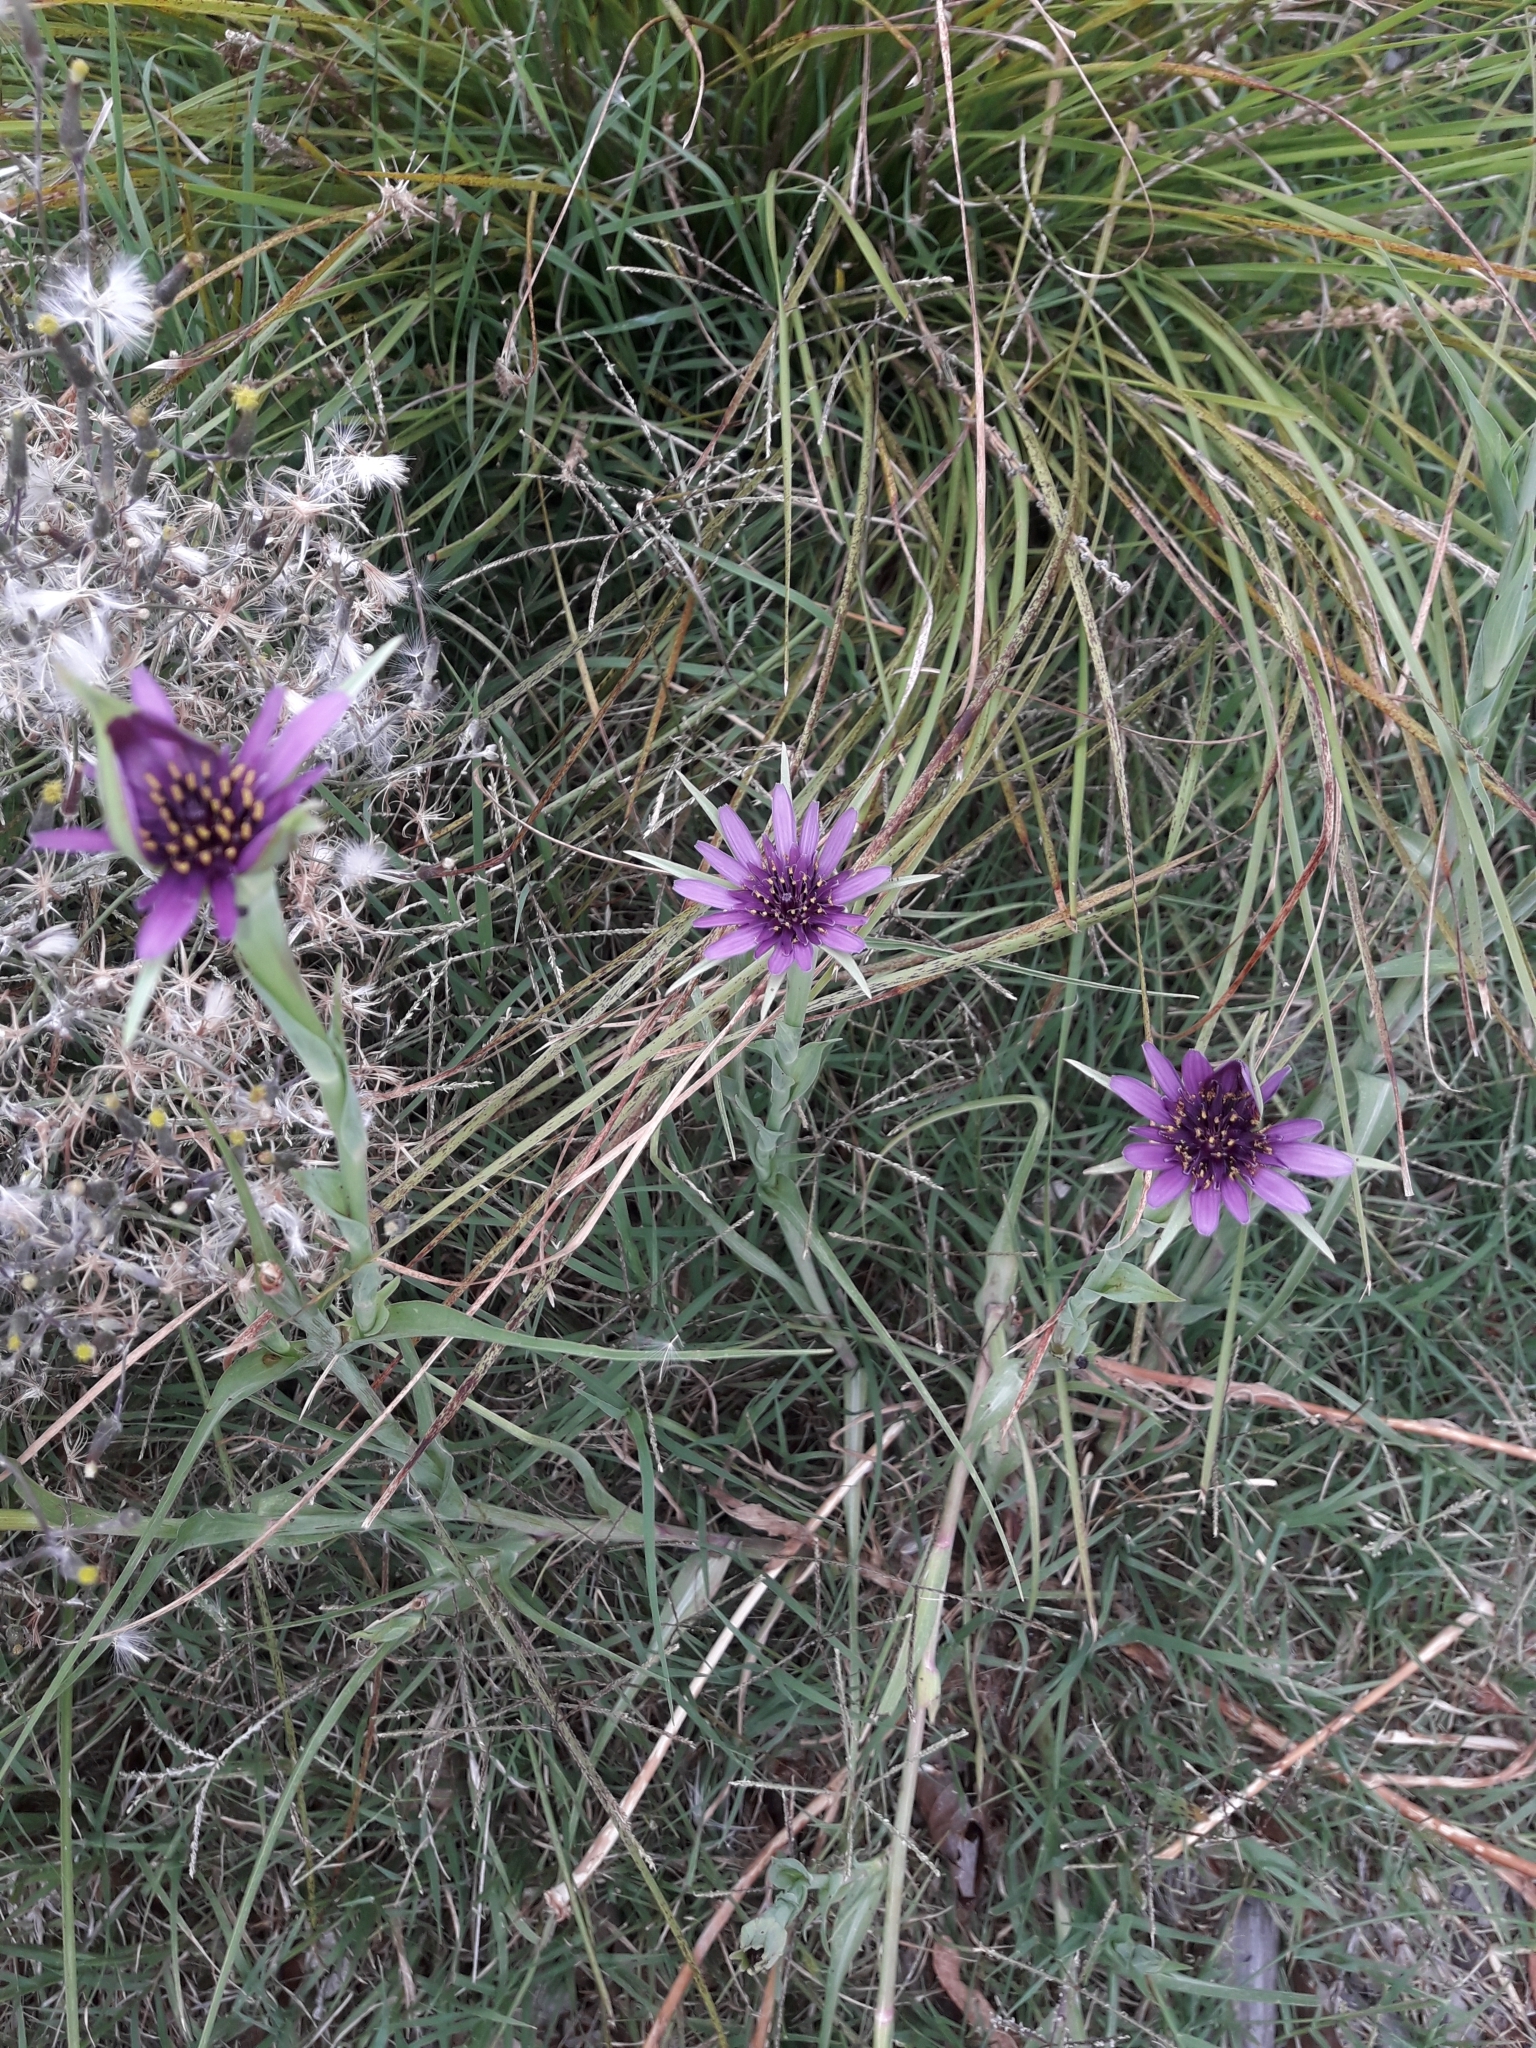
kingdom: Plantae
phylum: Tracheophyta
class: Magnoliopsida
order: Asterales
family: Asteraceae
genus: Tragopogon
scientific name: Tragopogon porrifolius
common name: Salsify
